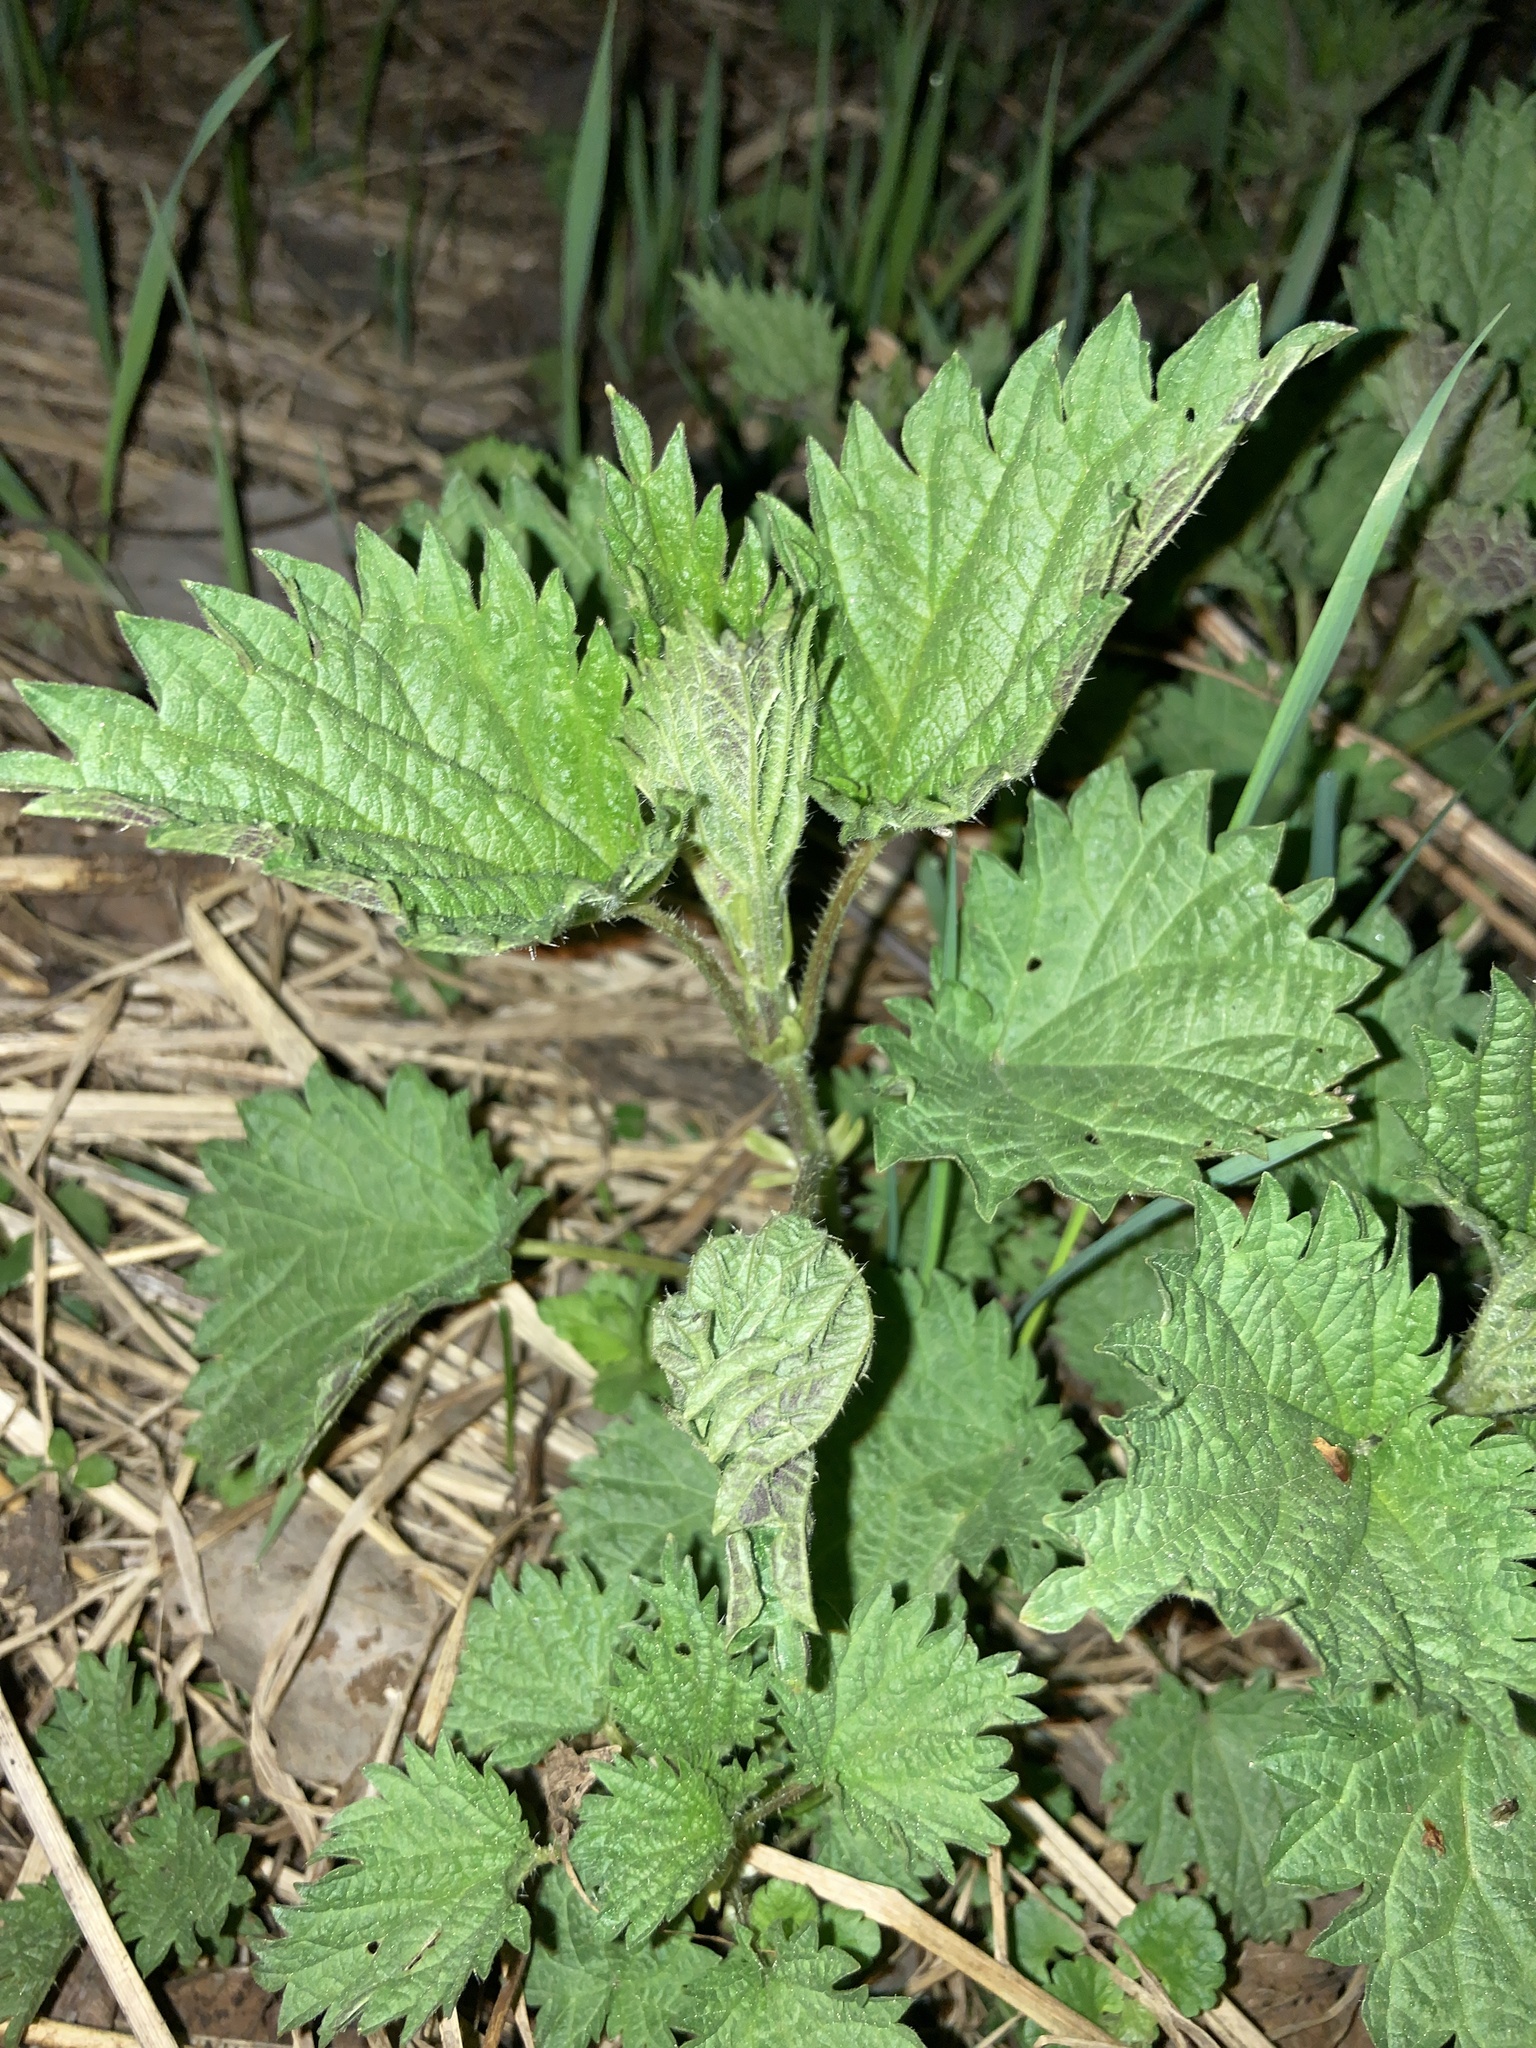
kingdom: Plantae
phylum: Tracheophyta
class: Magnoliopsida
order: Rosales
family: Urticaceae
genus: Urtica
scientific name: Urtica dioica
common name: Common nettle
